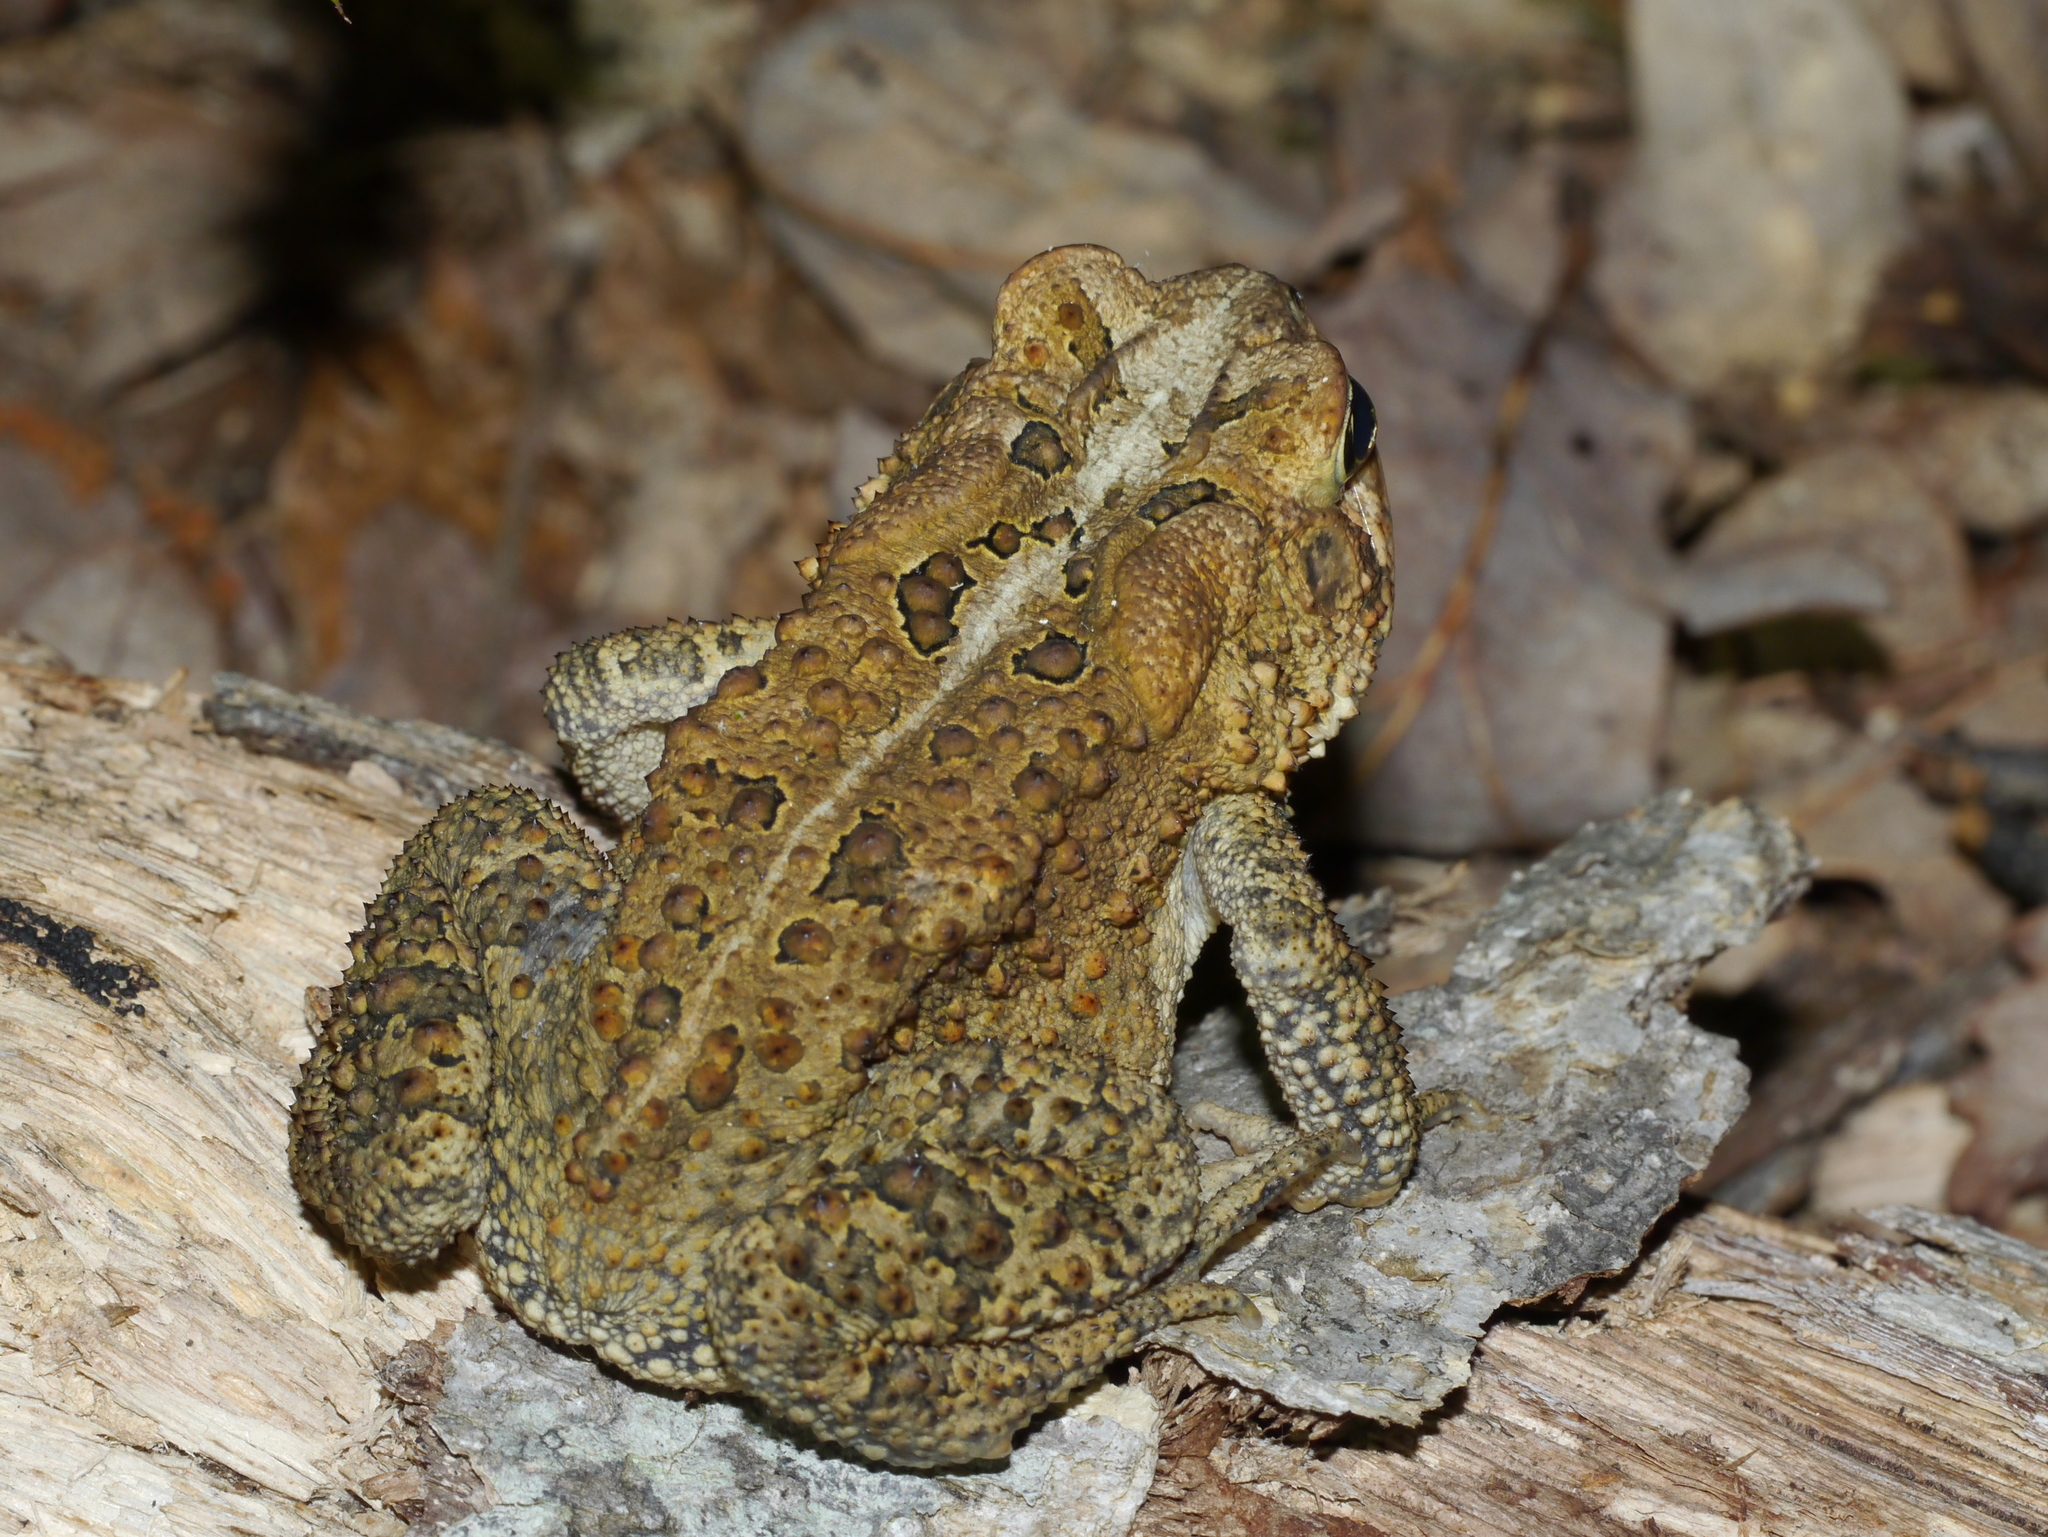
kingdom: Animalia
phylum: Chordata
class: Amphibia
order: Anura
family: Bufonidae
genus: Anaxyrus
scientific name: Anaxyrus americanus
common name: American toad
